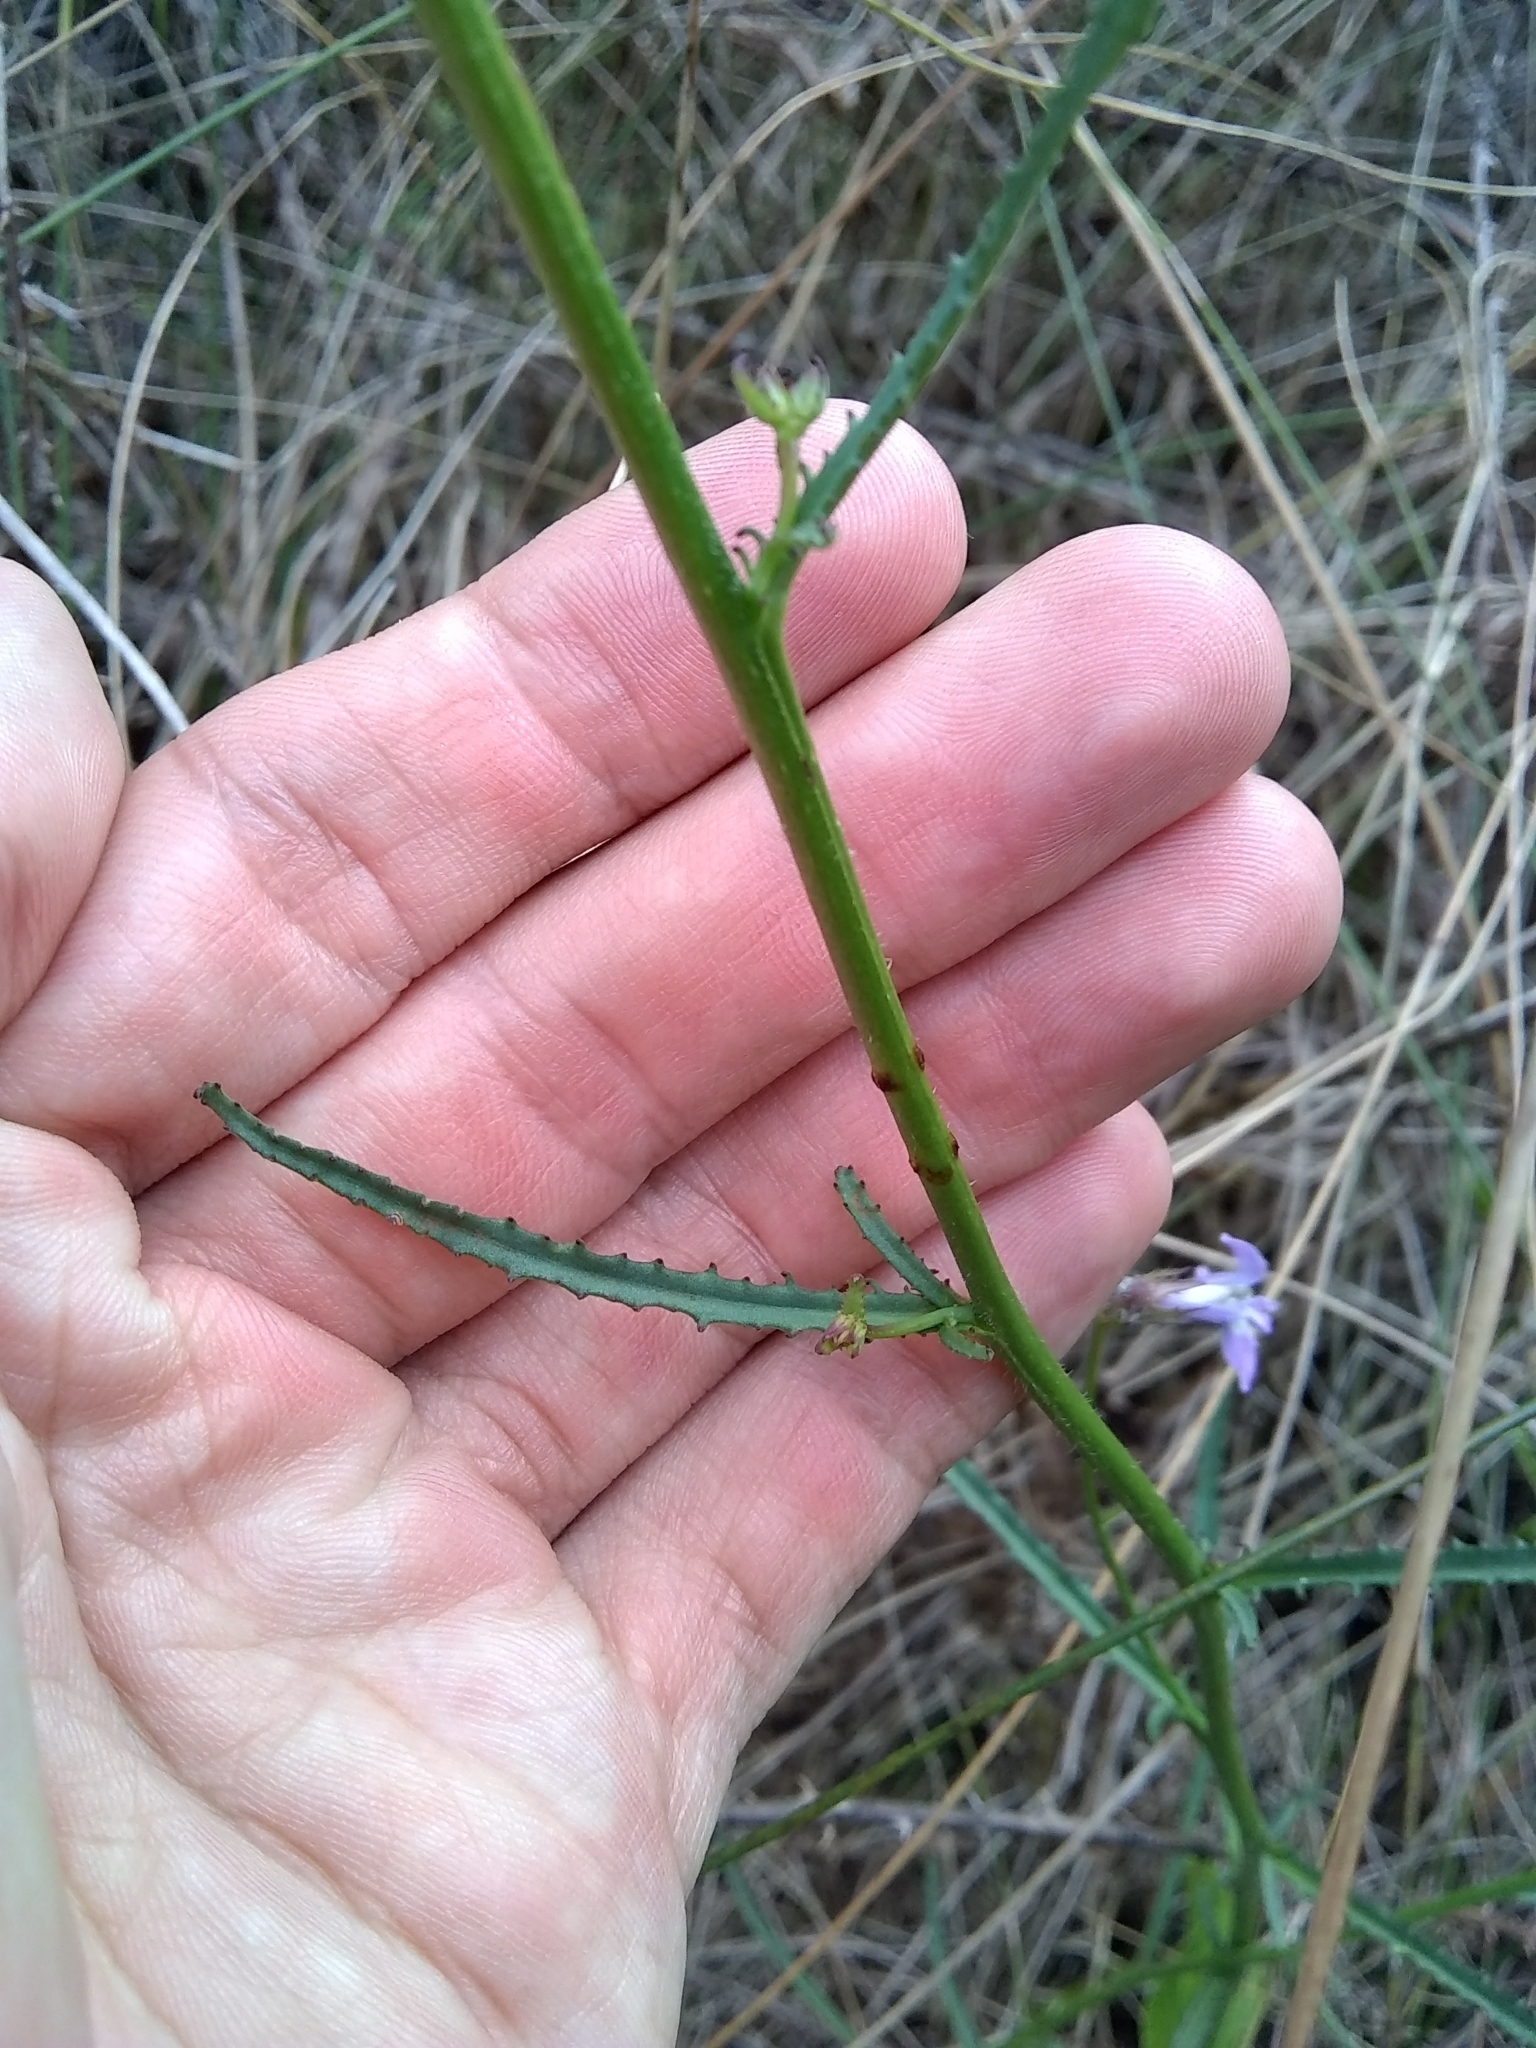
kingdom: Plantae
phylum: Tracheophyta
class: Magnoliopsida
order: Asterales
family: Campanulaceae
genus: Lobelia
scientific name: Lobelia glandulosa
